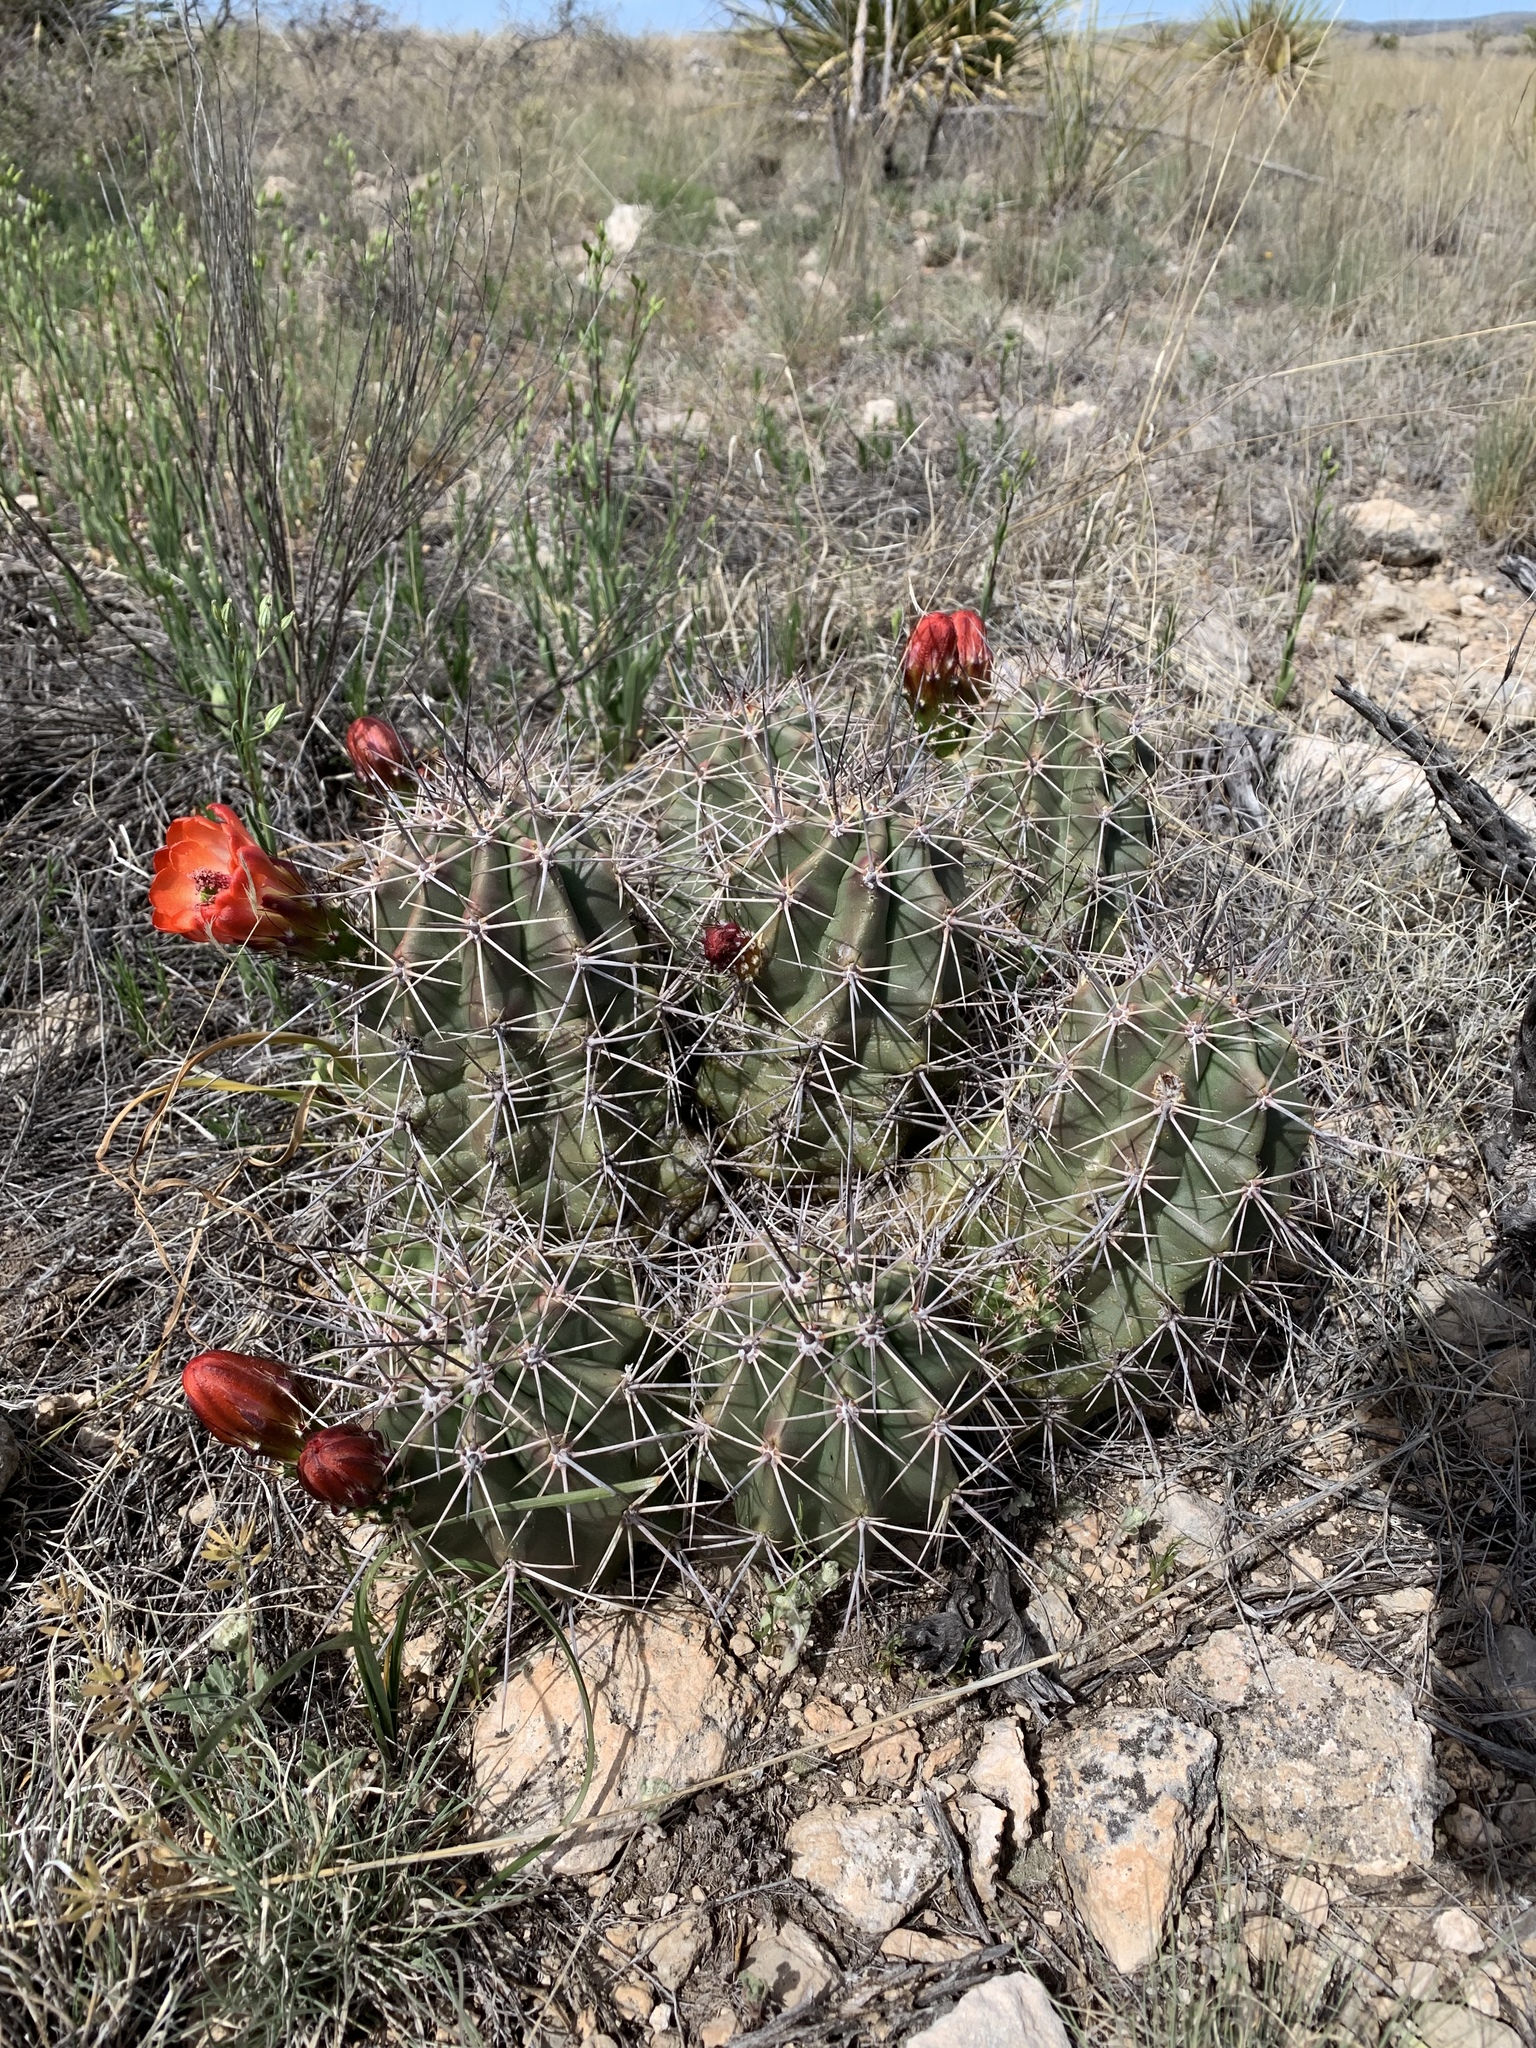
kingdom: Plantae
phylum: Tracheophyta
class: Magnoliopsida
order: Caryophyllales
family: Cactaceae
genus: Echinocereus
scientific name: Echinocereus coccineus
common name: Scarlet hedgehog cactus
